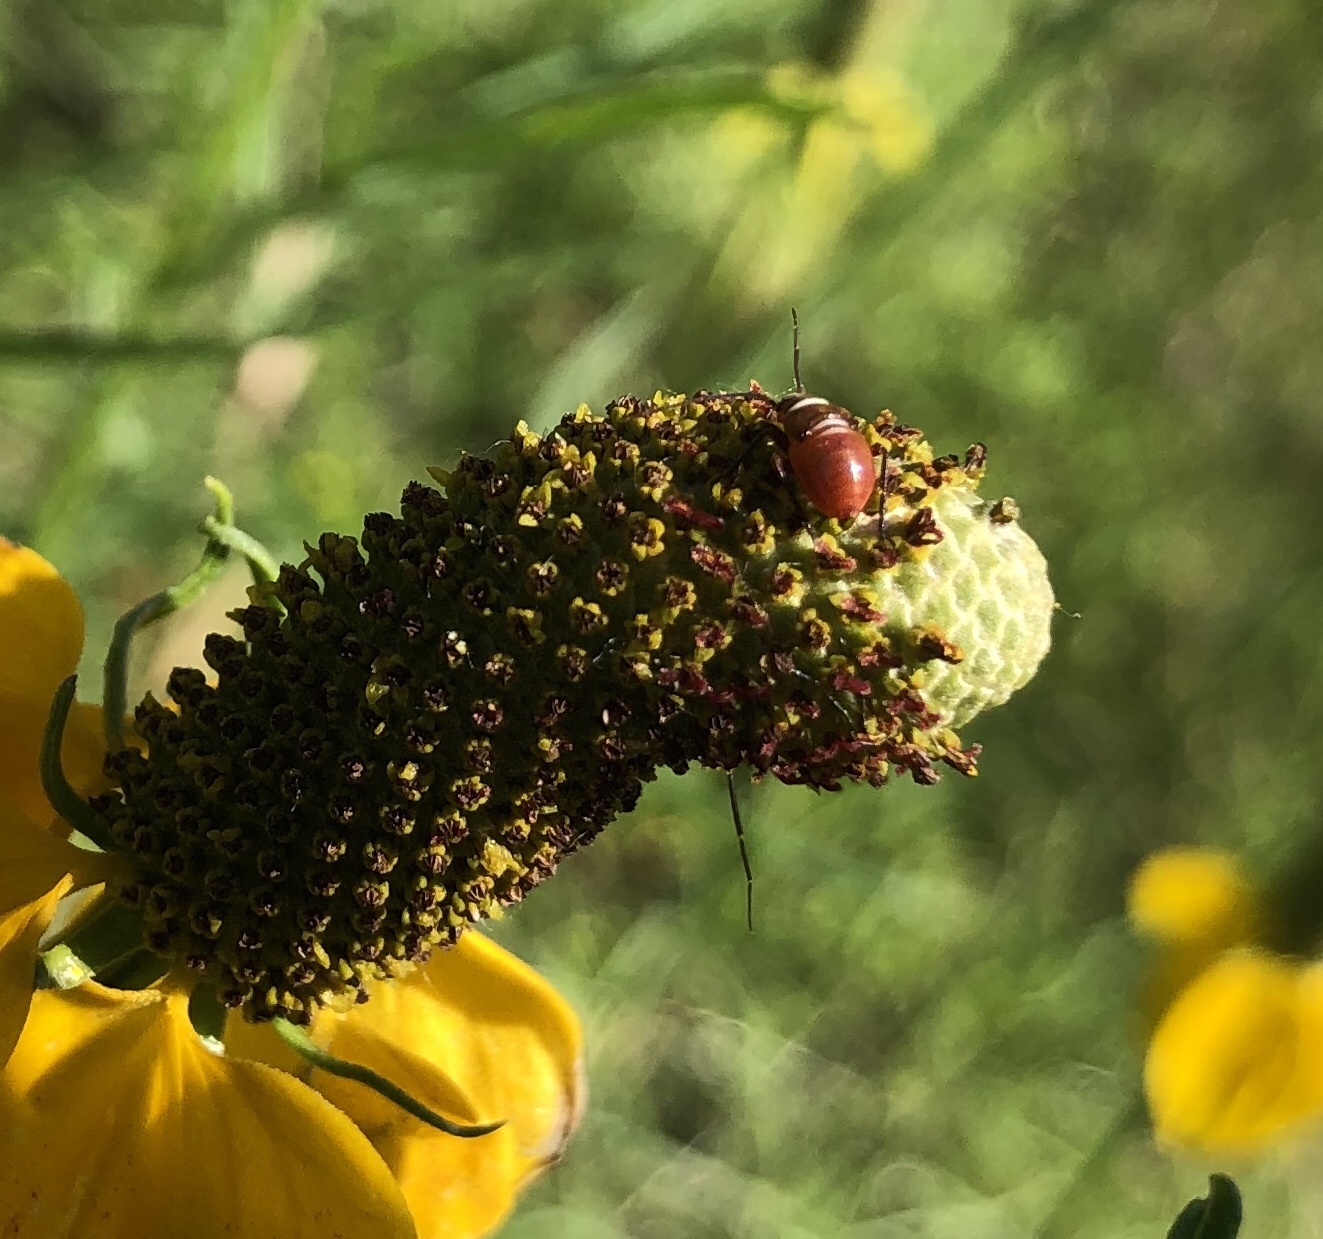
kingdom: Animalia
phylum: Arthropoda
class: Insecta
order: Hemiptera
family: Miridae
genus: Calocoris
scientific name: Calocoris barberi
